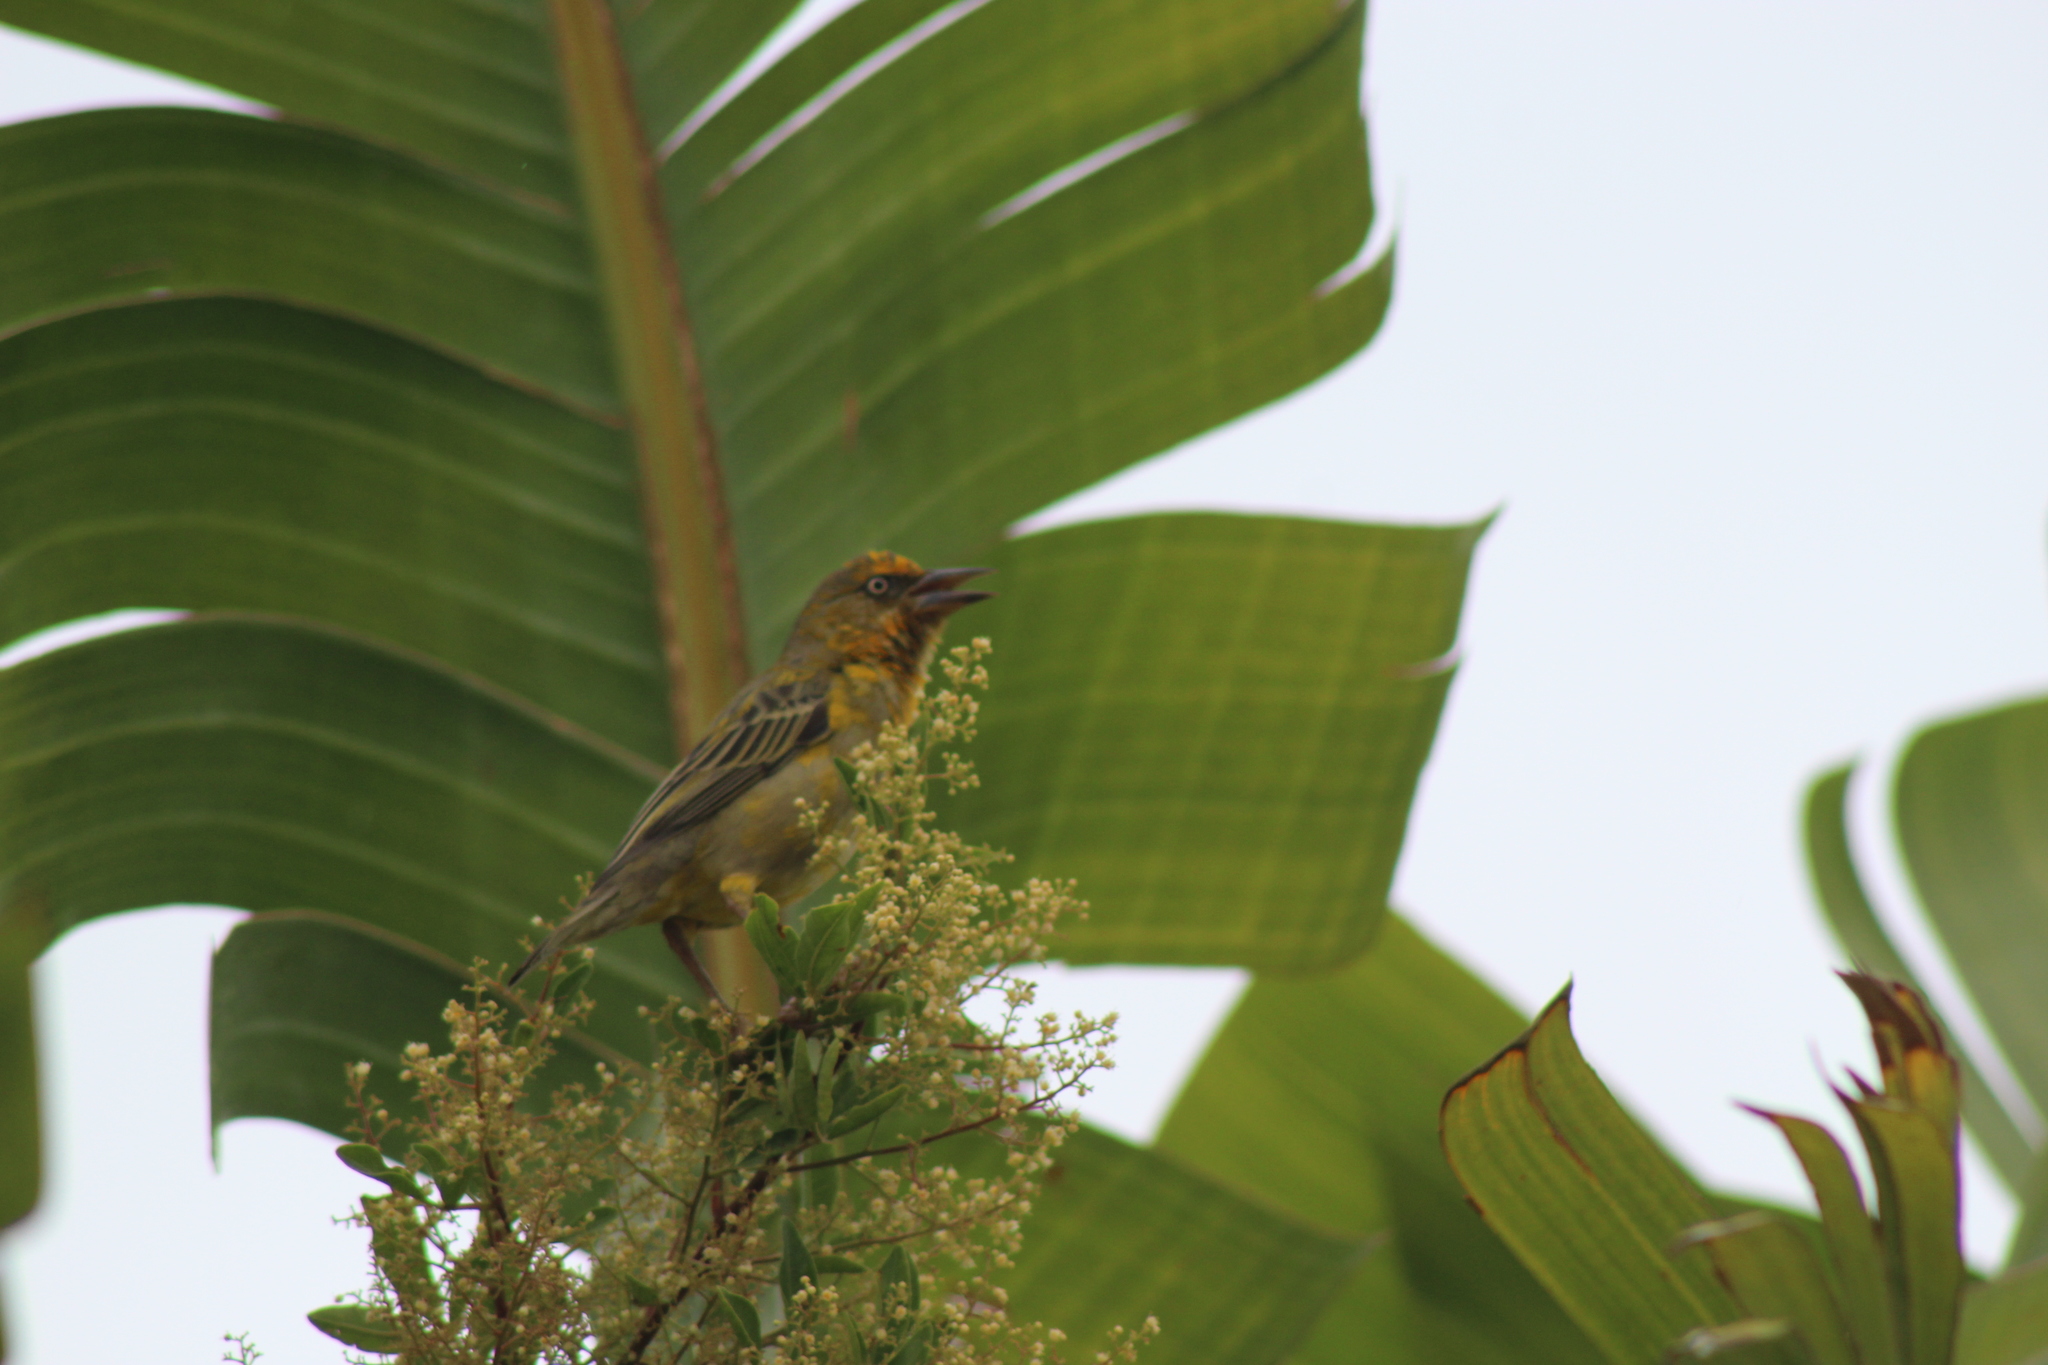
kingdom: Animalia
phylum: Chordata
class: Aves
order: Passeriformes
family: Ploceidae
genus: Ploceus
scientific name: Ploceus capensis
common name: Cape weaver
